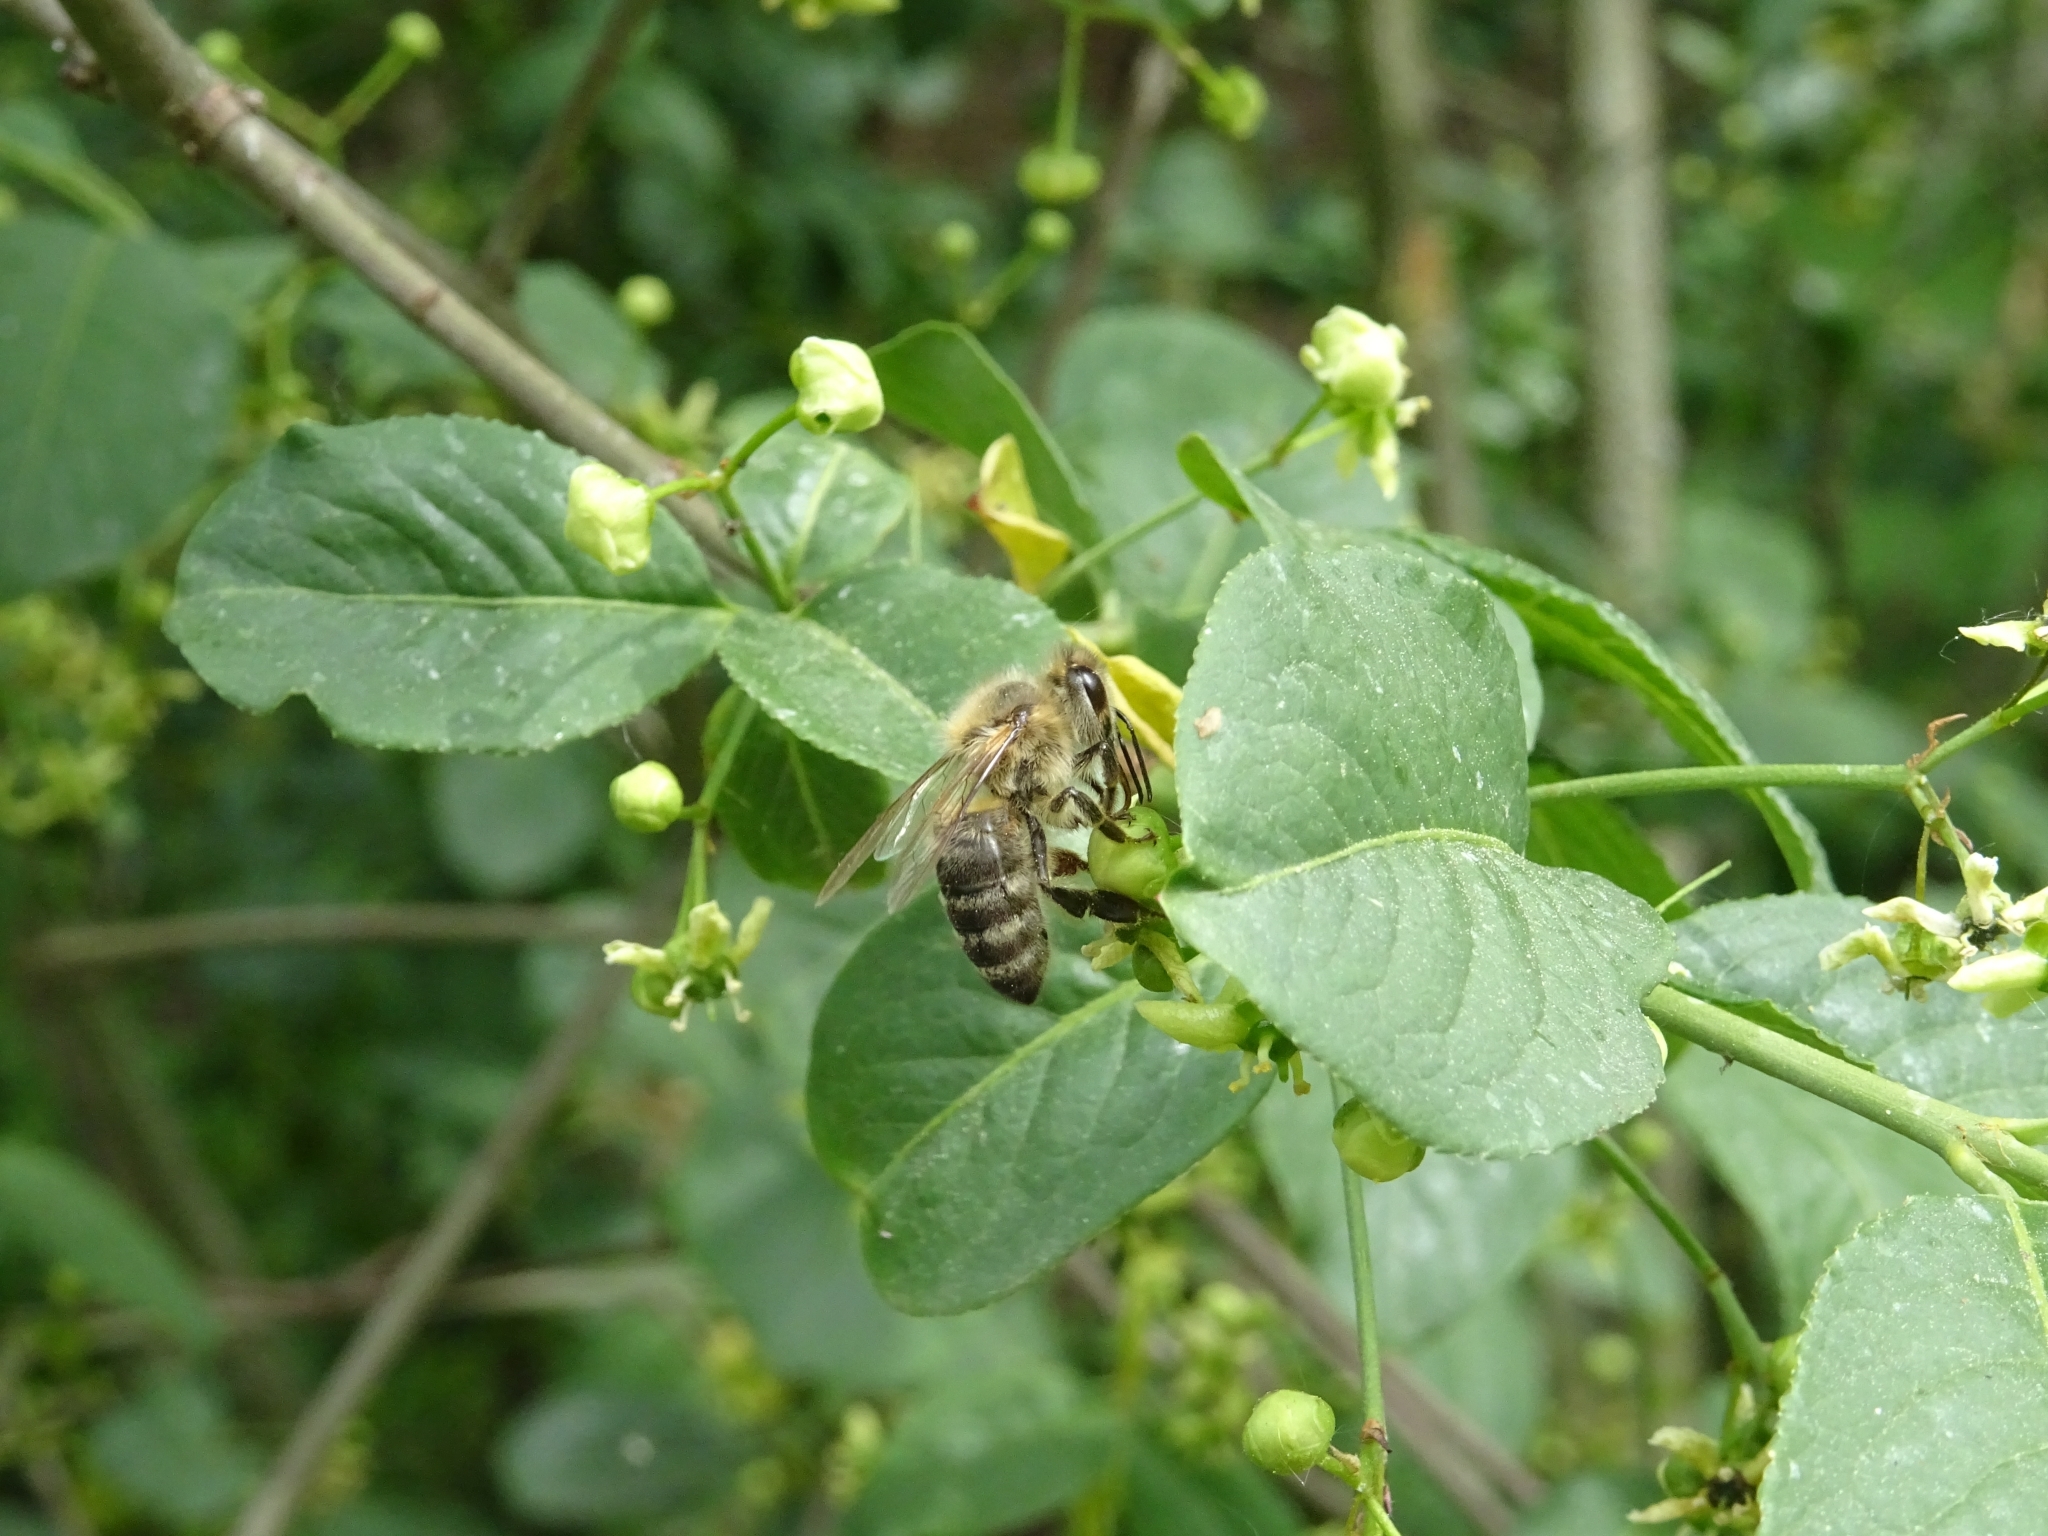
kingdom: Animalia
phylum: Arthropoda
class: Insecta
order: Hymenoptera
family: Apidae
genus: Apis
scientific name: Apis mellifera
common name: Honey bee
